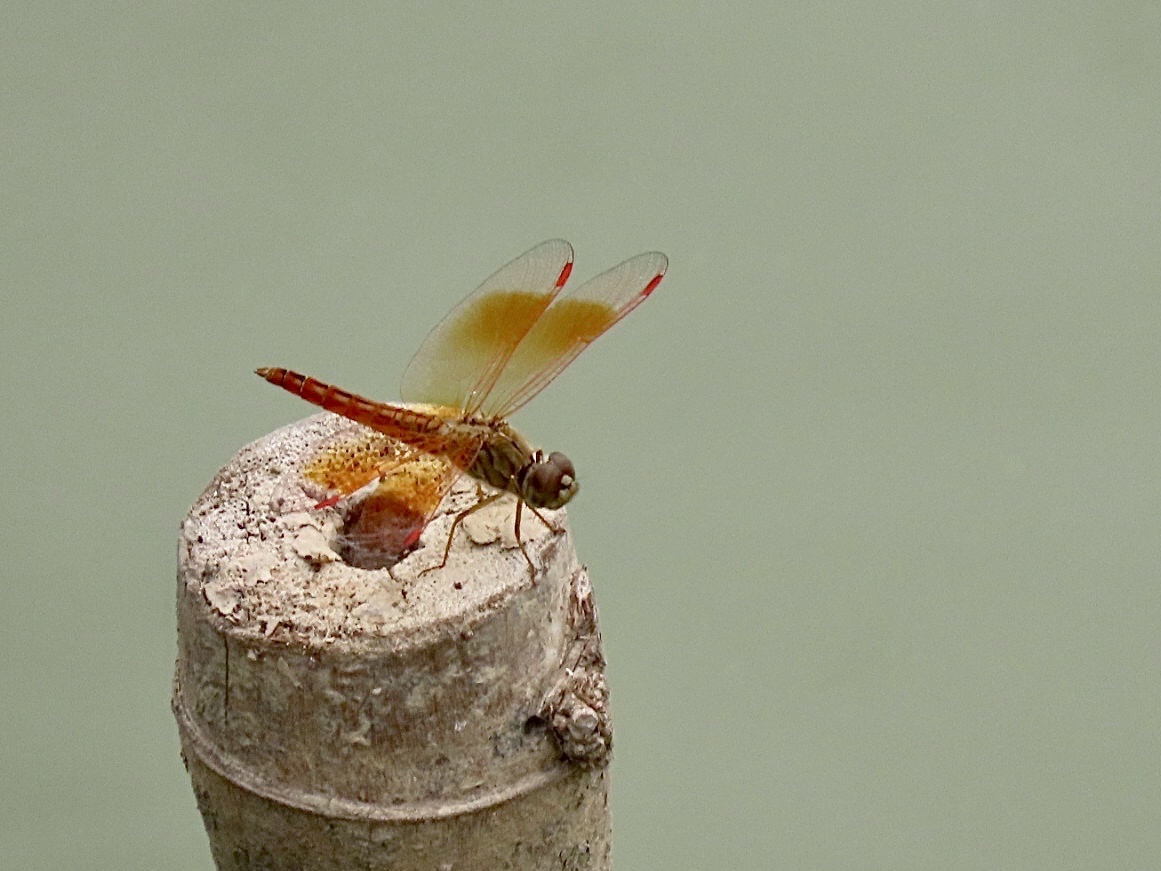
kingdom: Animalia
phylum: Arthropoda
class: Insecta
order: Odonata
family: Libellulidae
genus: Brachythemis
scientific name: Brachythemis contaminata
